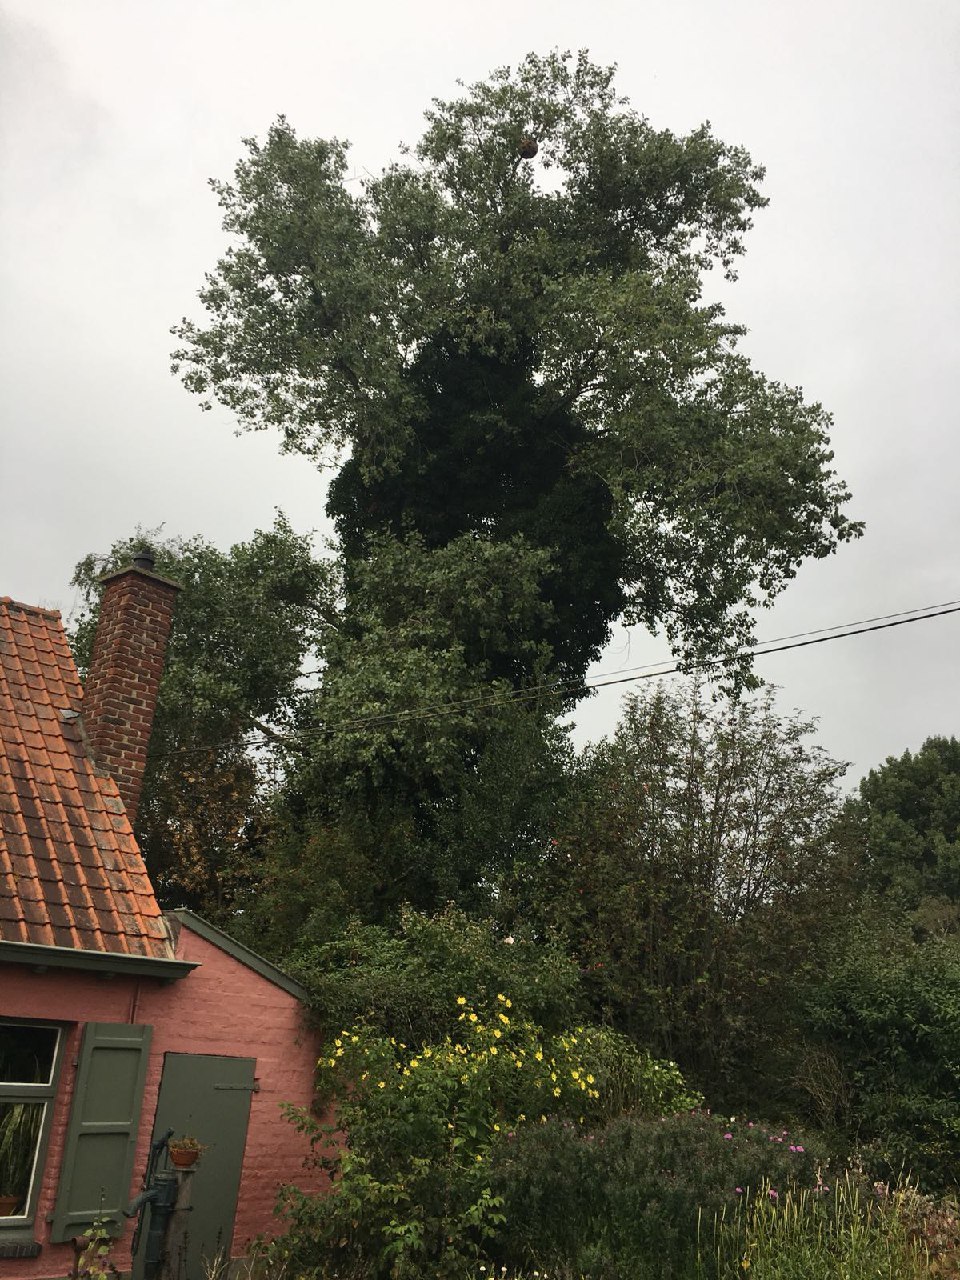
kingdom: Animalia
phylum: Arthropoda
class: Insecta
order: Hymenoptera
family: Vespidae
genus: Vespa
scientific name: Vespa velutina
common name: Asian hornet
